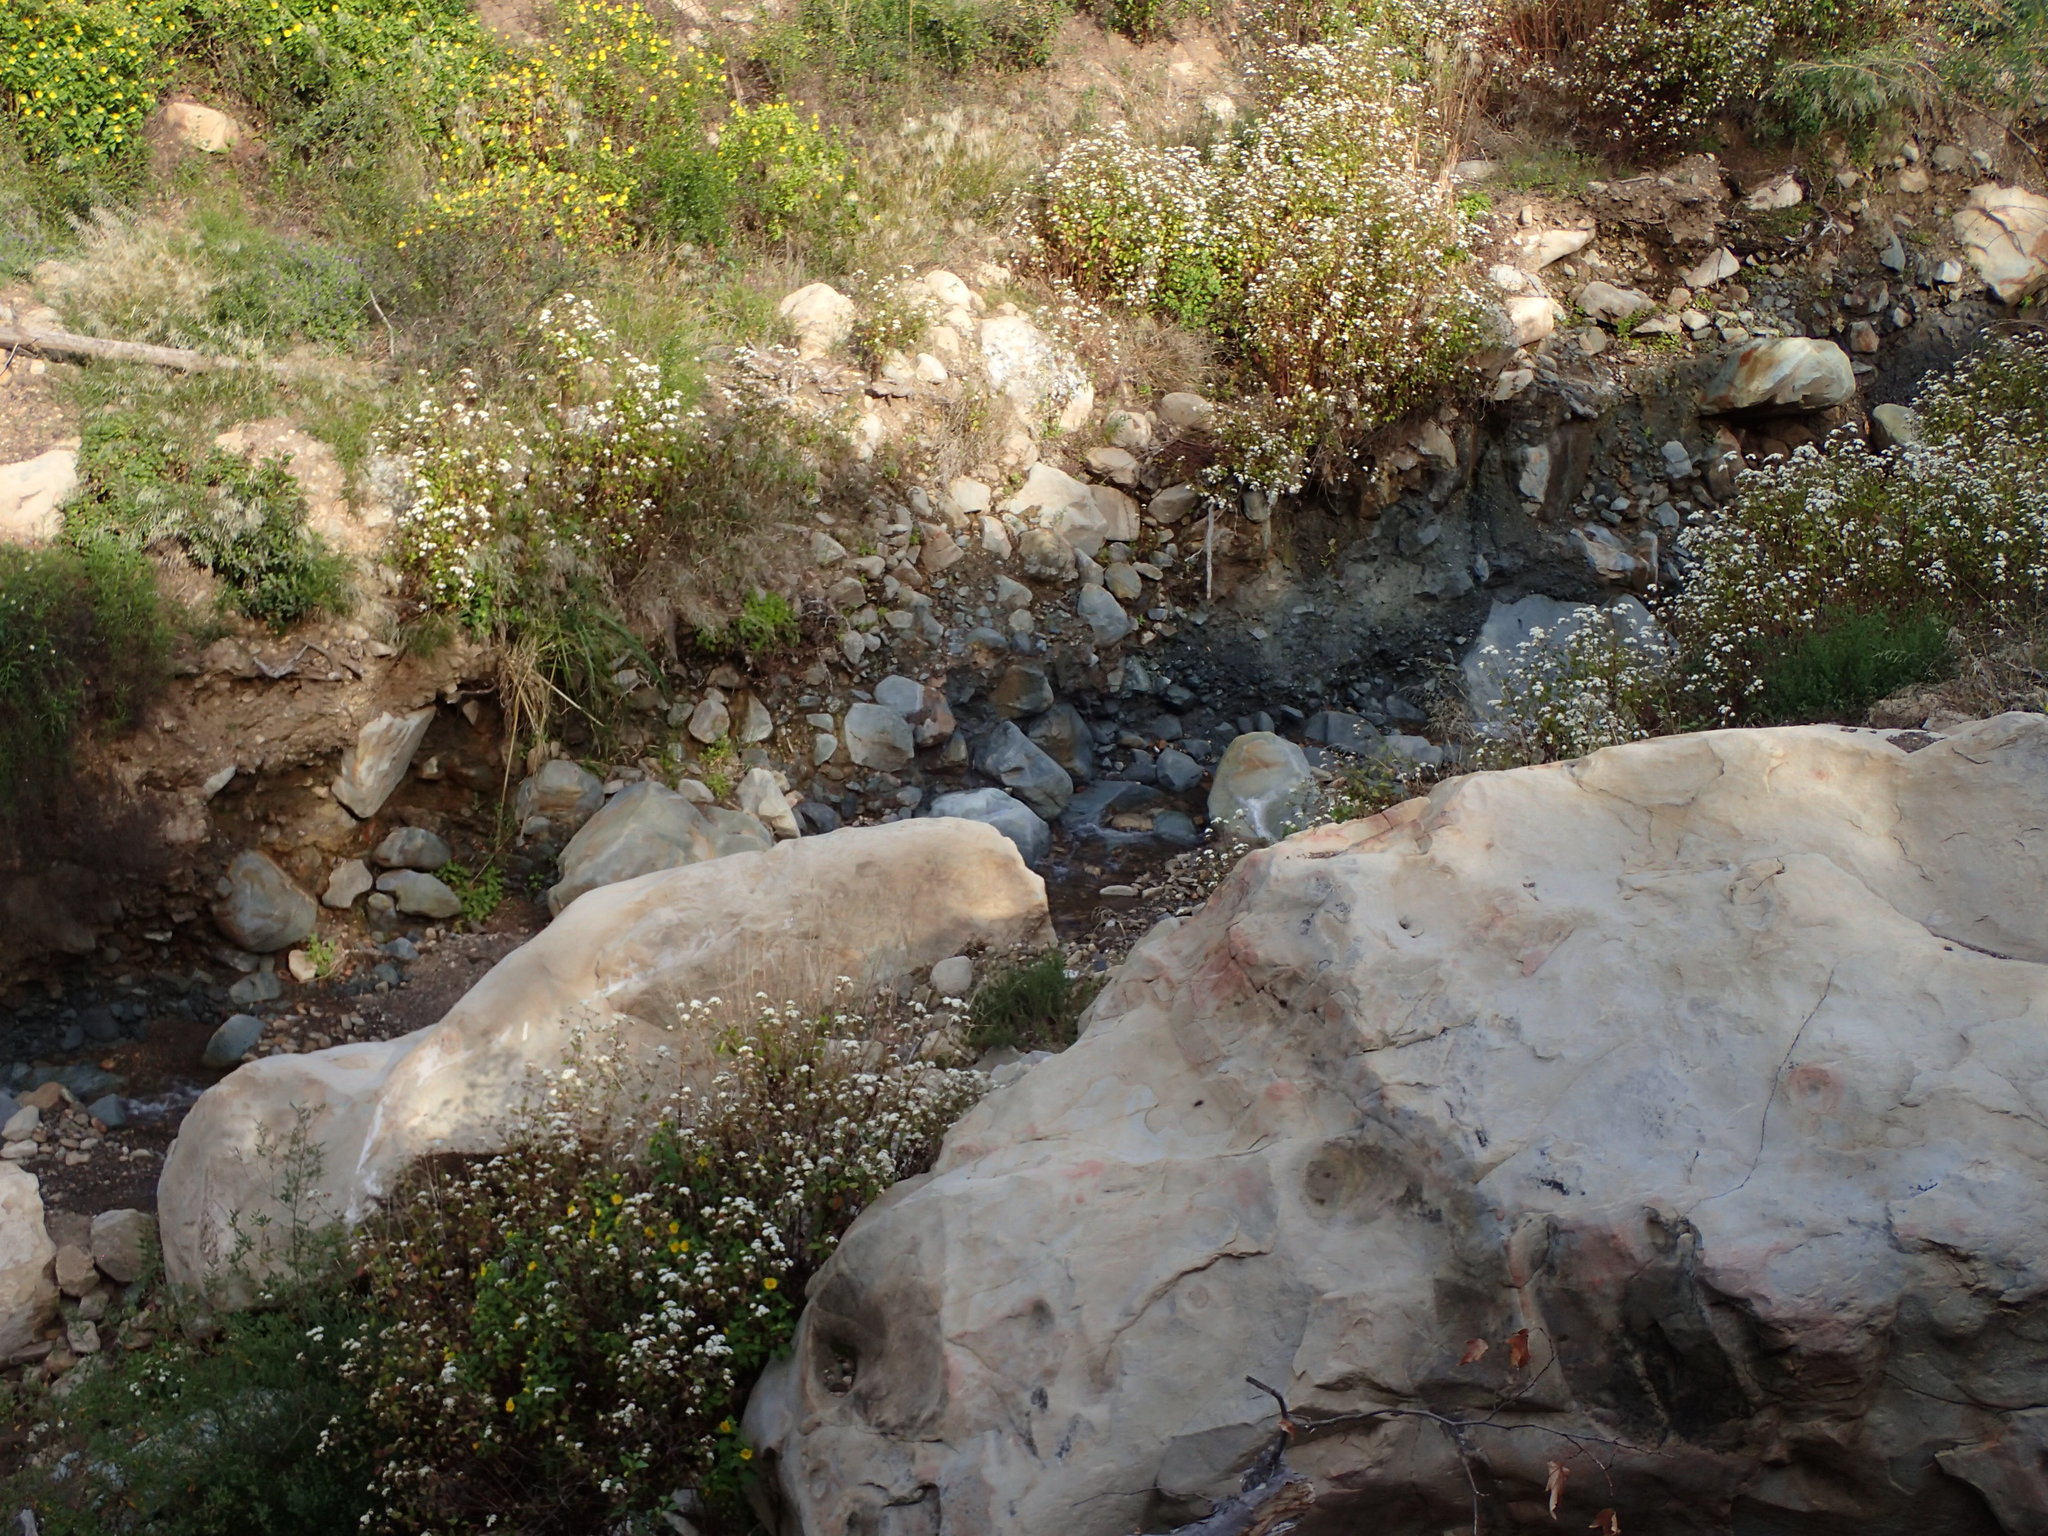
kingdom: Plantae
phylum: Tracheophyta
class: Magnoliopsida
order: Asterales
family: Asteraceae
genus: Ageratina
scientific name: Ageratina adenophora
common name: Sticky snakeroot
